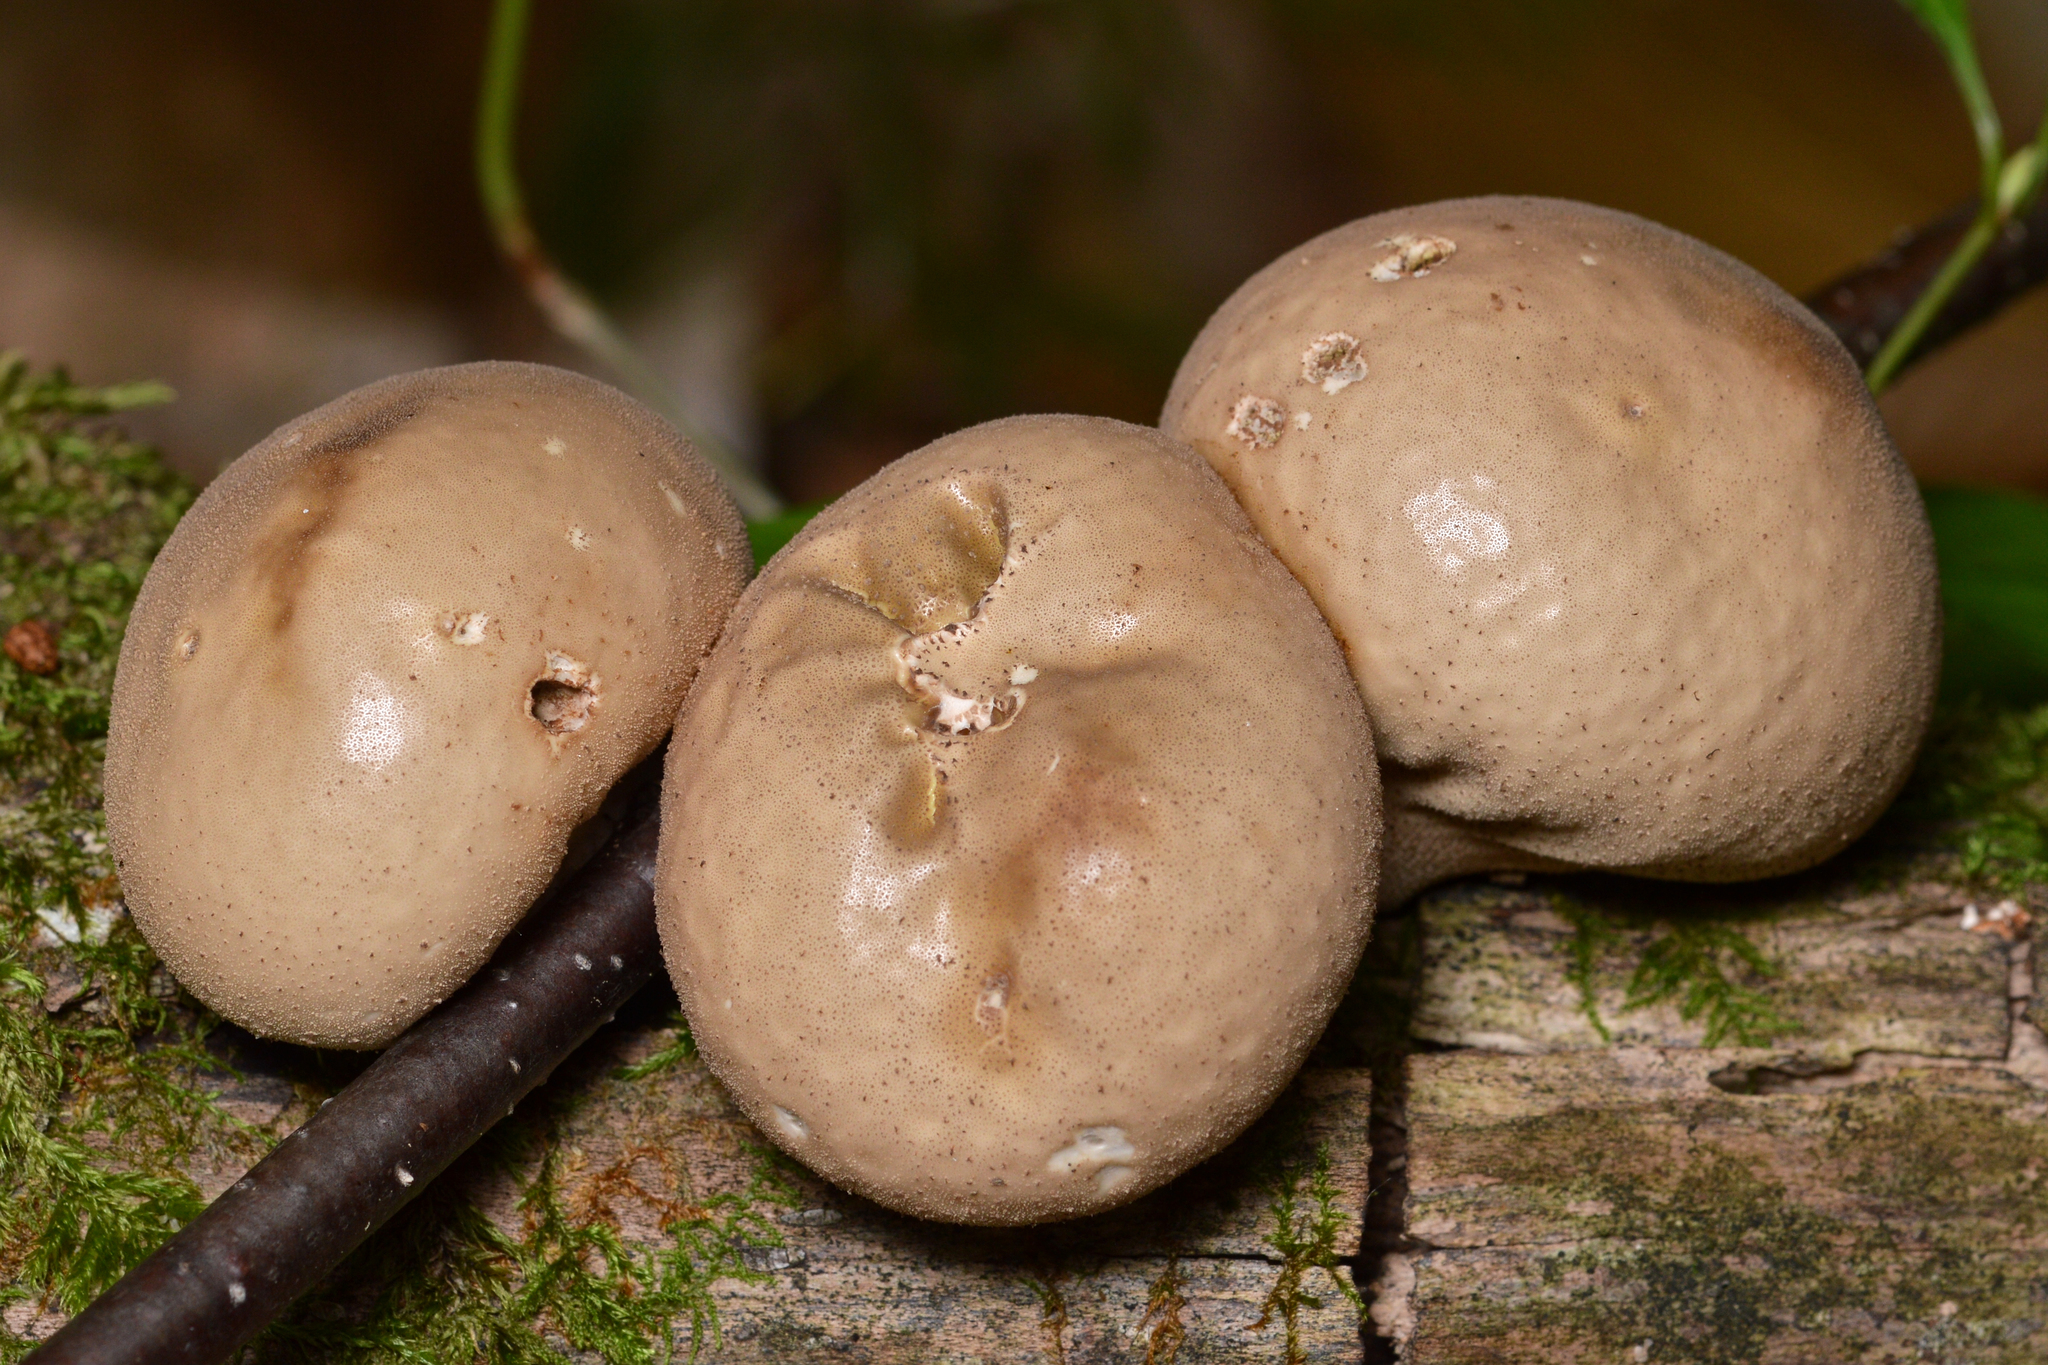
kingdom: Fungi
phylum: Basidiomycota
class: Agaricomycetes
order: Agaricales
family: Lycoperdaceae
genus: Apioperdon
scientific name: Apioperdon pyriforme
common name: Pear-shaped puffball
